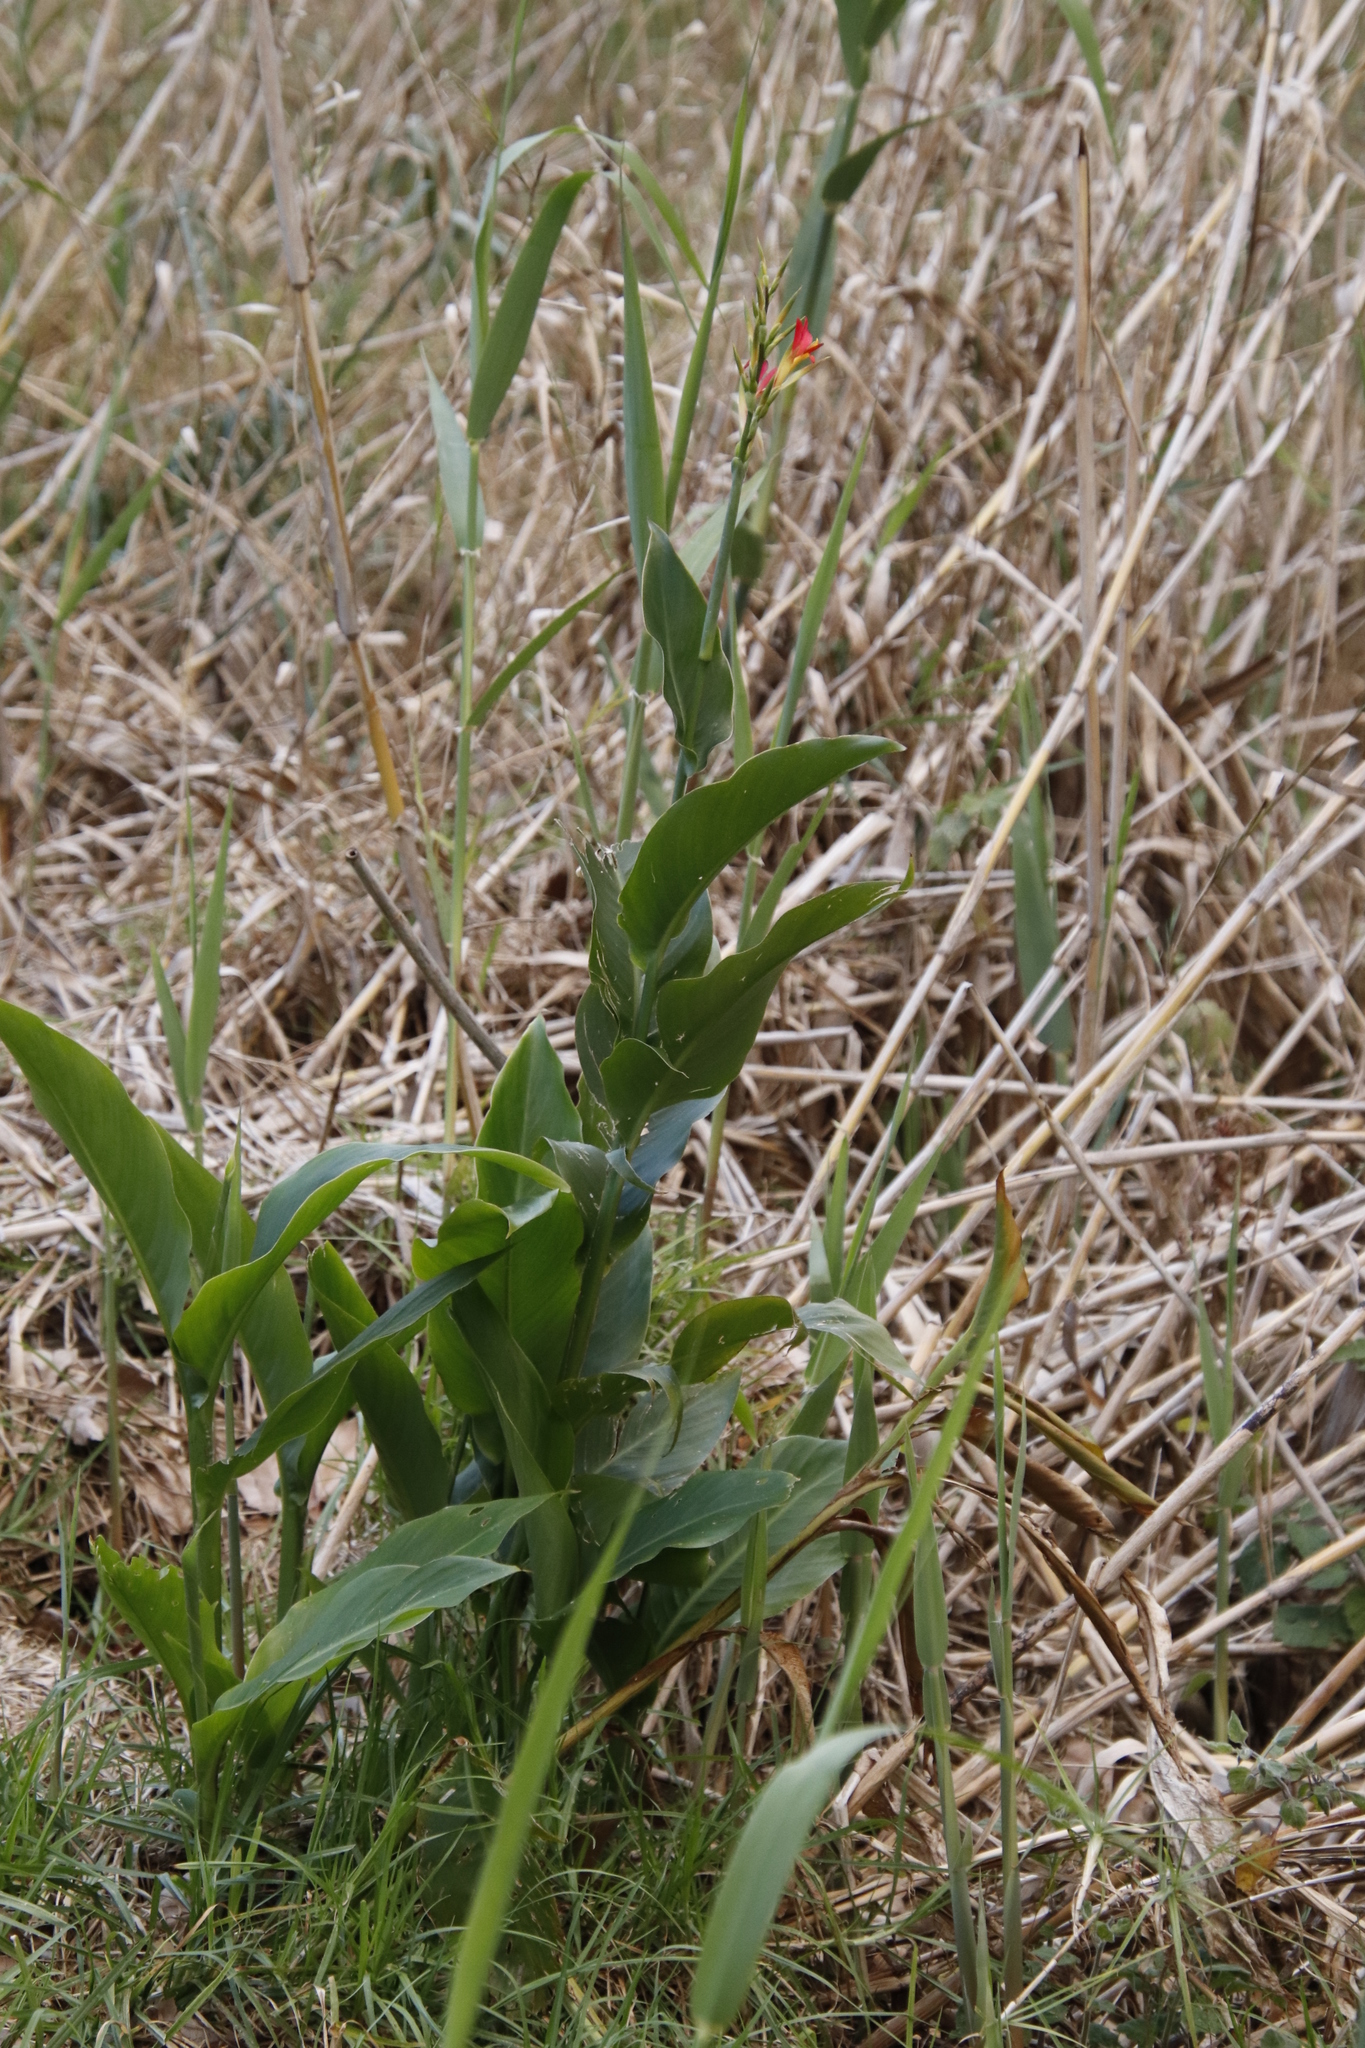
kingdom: Plantae
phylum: Tracheophyta
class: Liliopsida
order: Zingiberales
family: Cannaceae
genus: Canna
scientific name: Canna indica
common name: Indian shot
